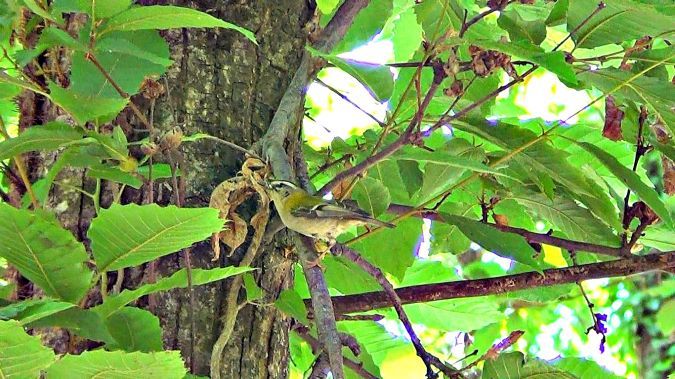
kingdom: Animalia
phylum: Chordata
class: Aves
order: Passeriformes
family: Regulidae
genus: Regulus
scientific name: Regulus ignicapilla
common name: Firecrest
